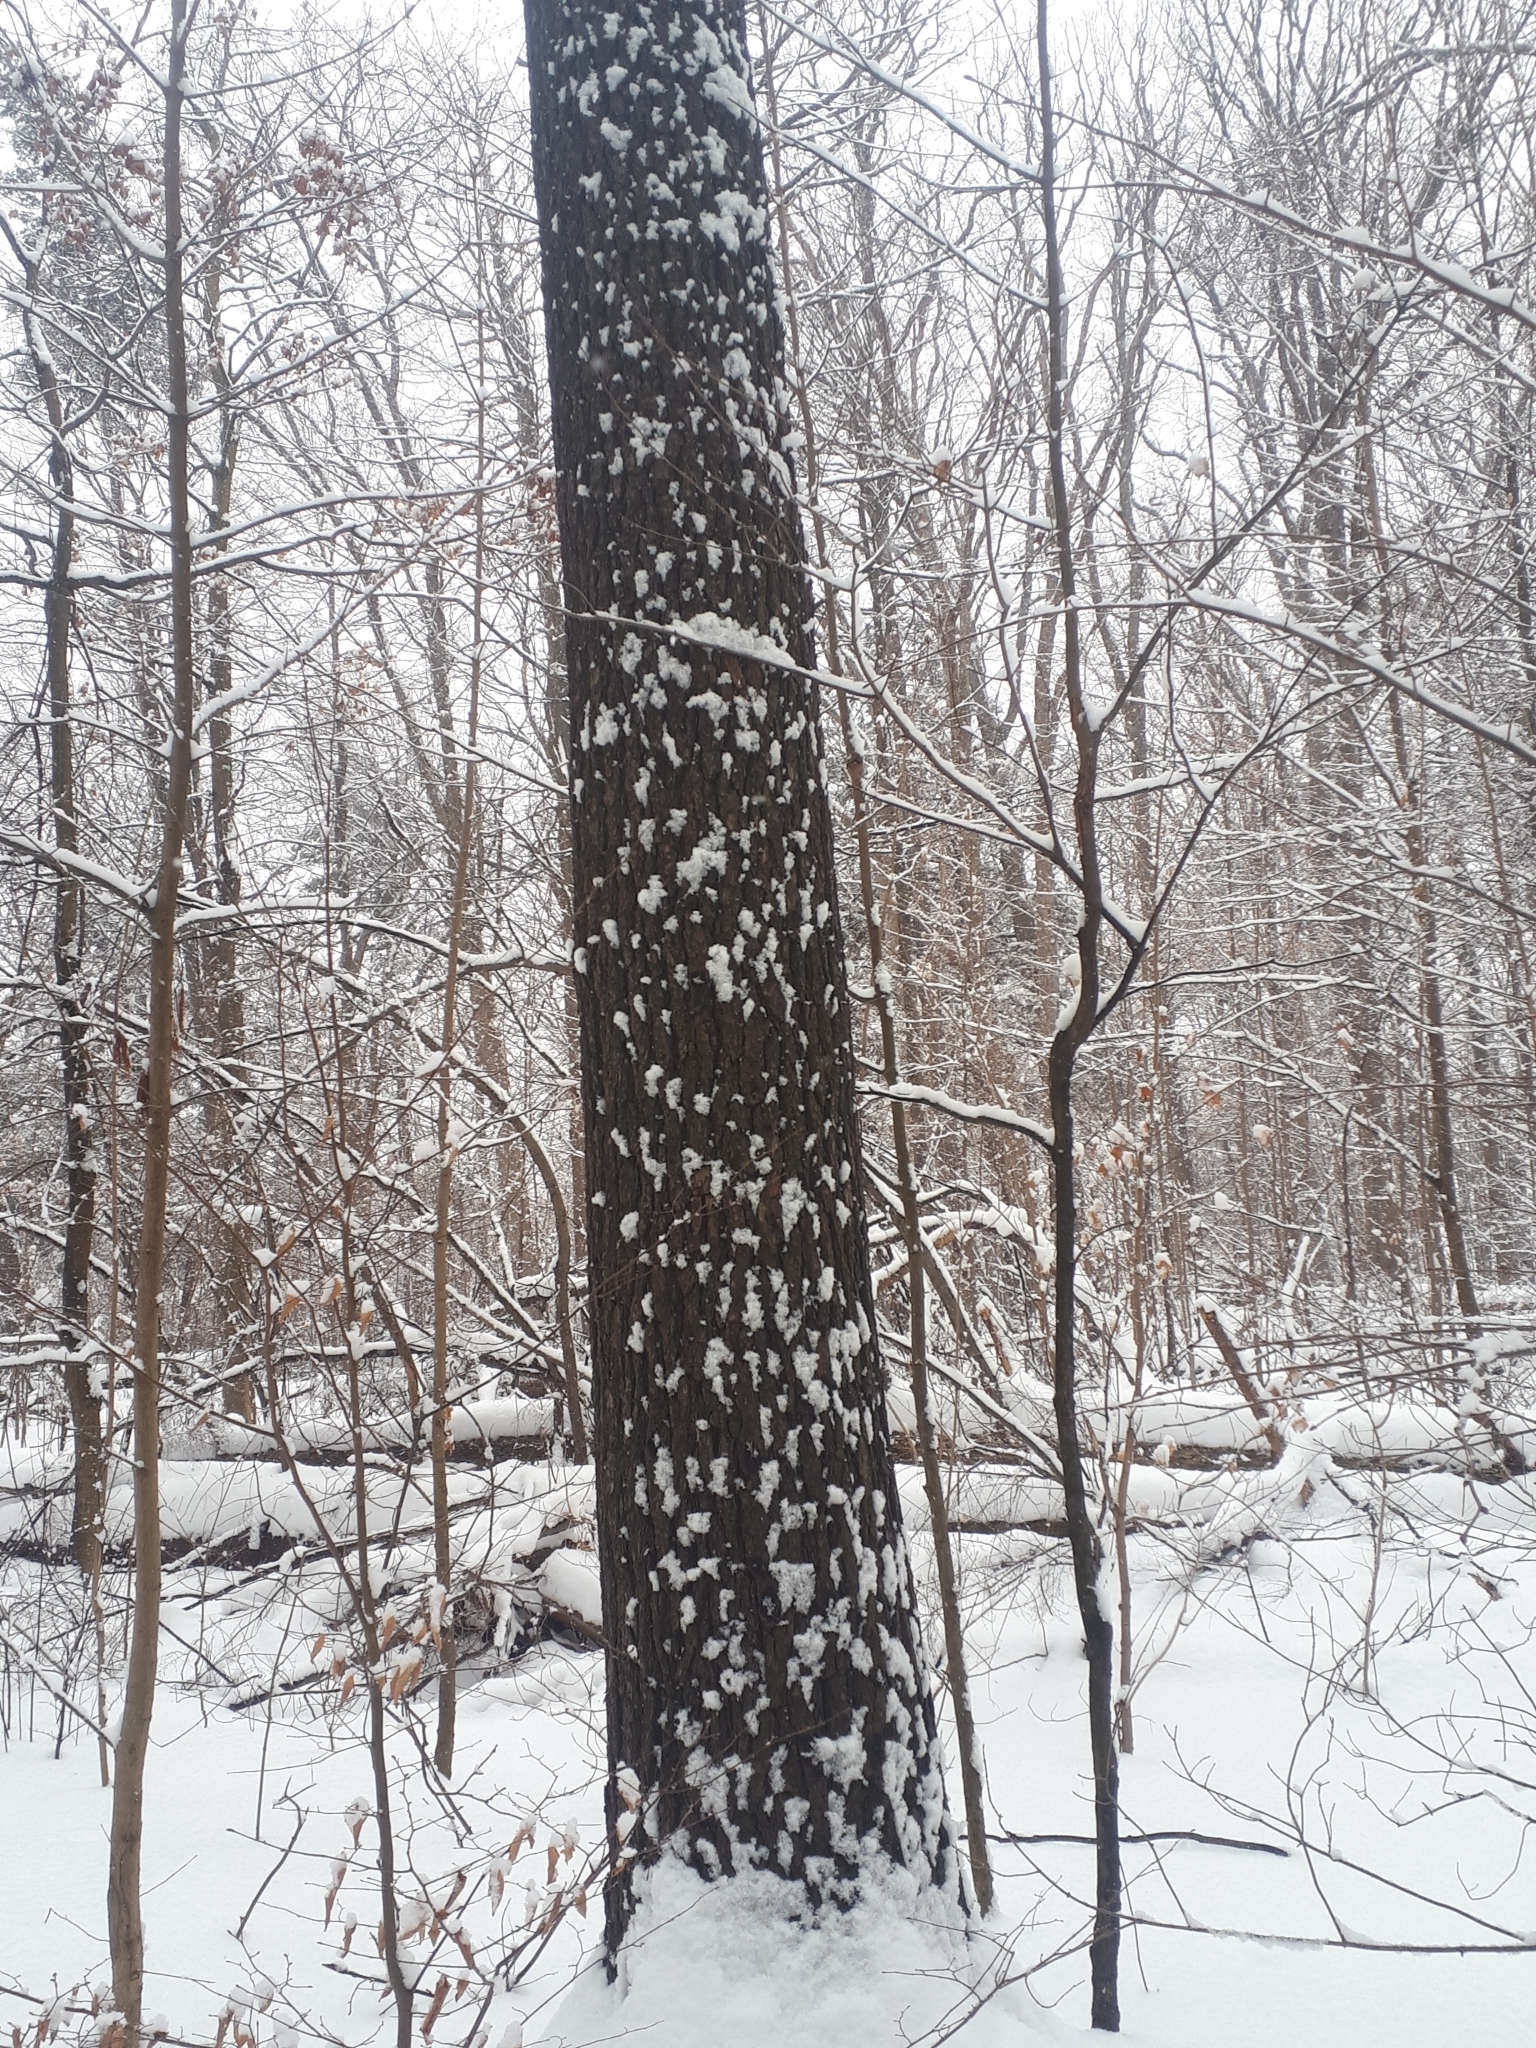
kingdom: Plantae
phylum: Tracheophyta
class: Pinopsida
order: Pinales
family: Pinaceae
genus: Pinus
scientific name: Pinus strobus
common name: Weymouth pine
